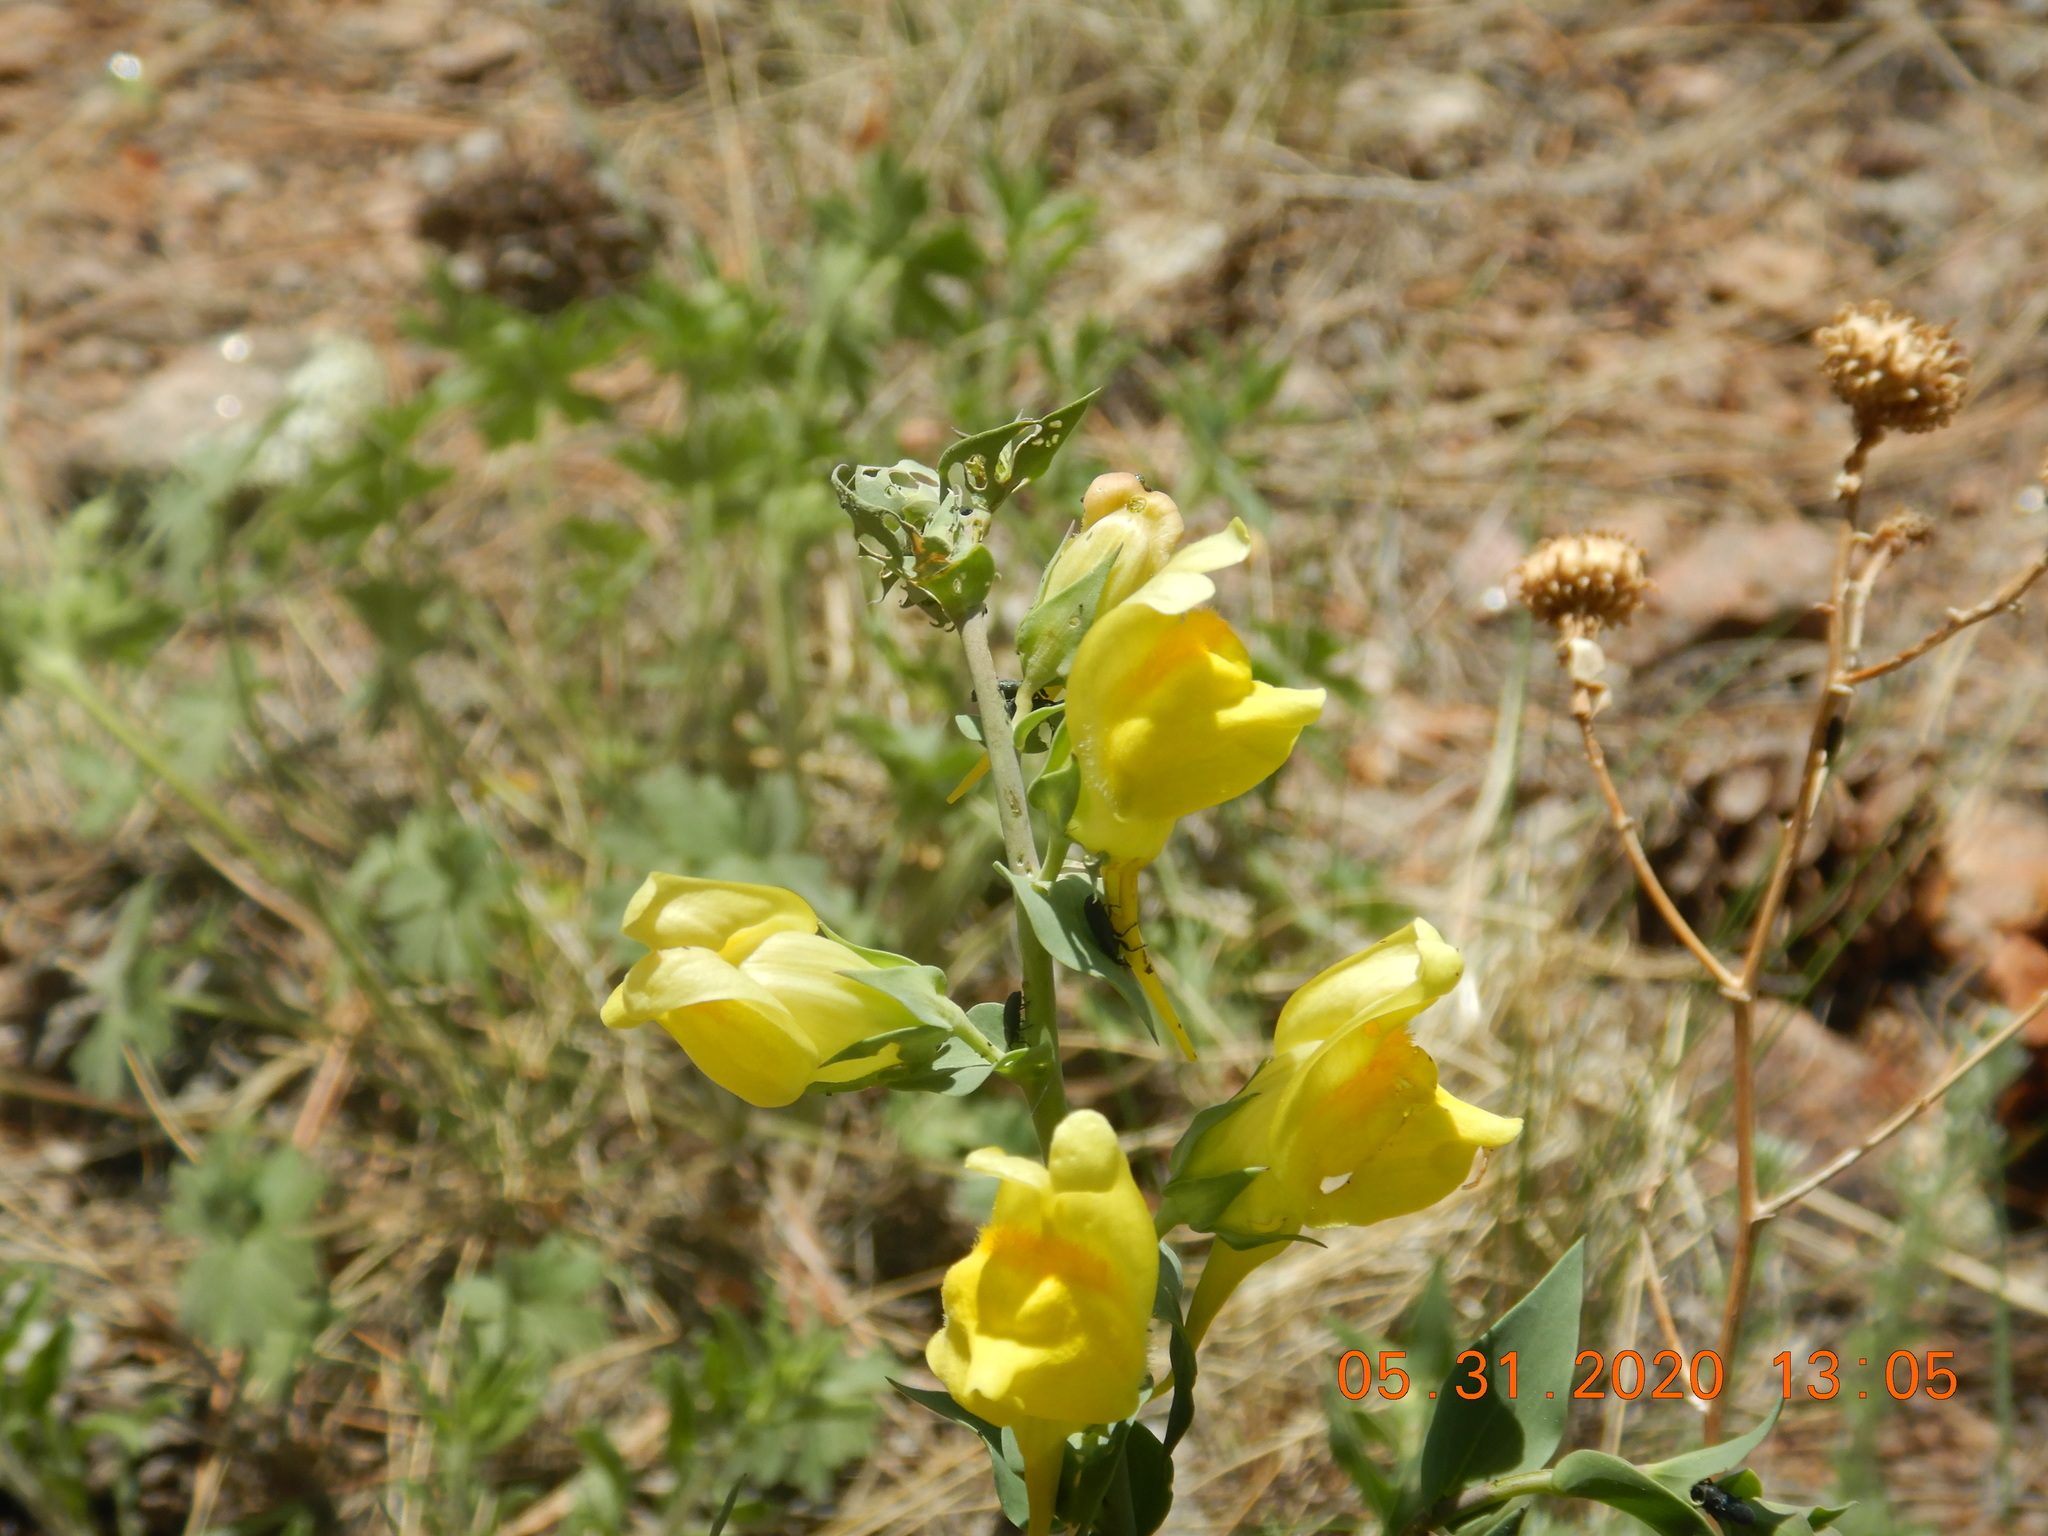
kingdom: Plantae
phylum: Tracheophyta
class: Magnoliopsida
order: Lamiales
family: Plantaginaceae
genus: Linaria
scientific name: Linaria dalmatica
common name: Dalmatian toadflax
